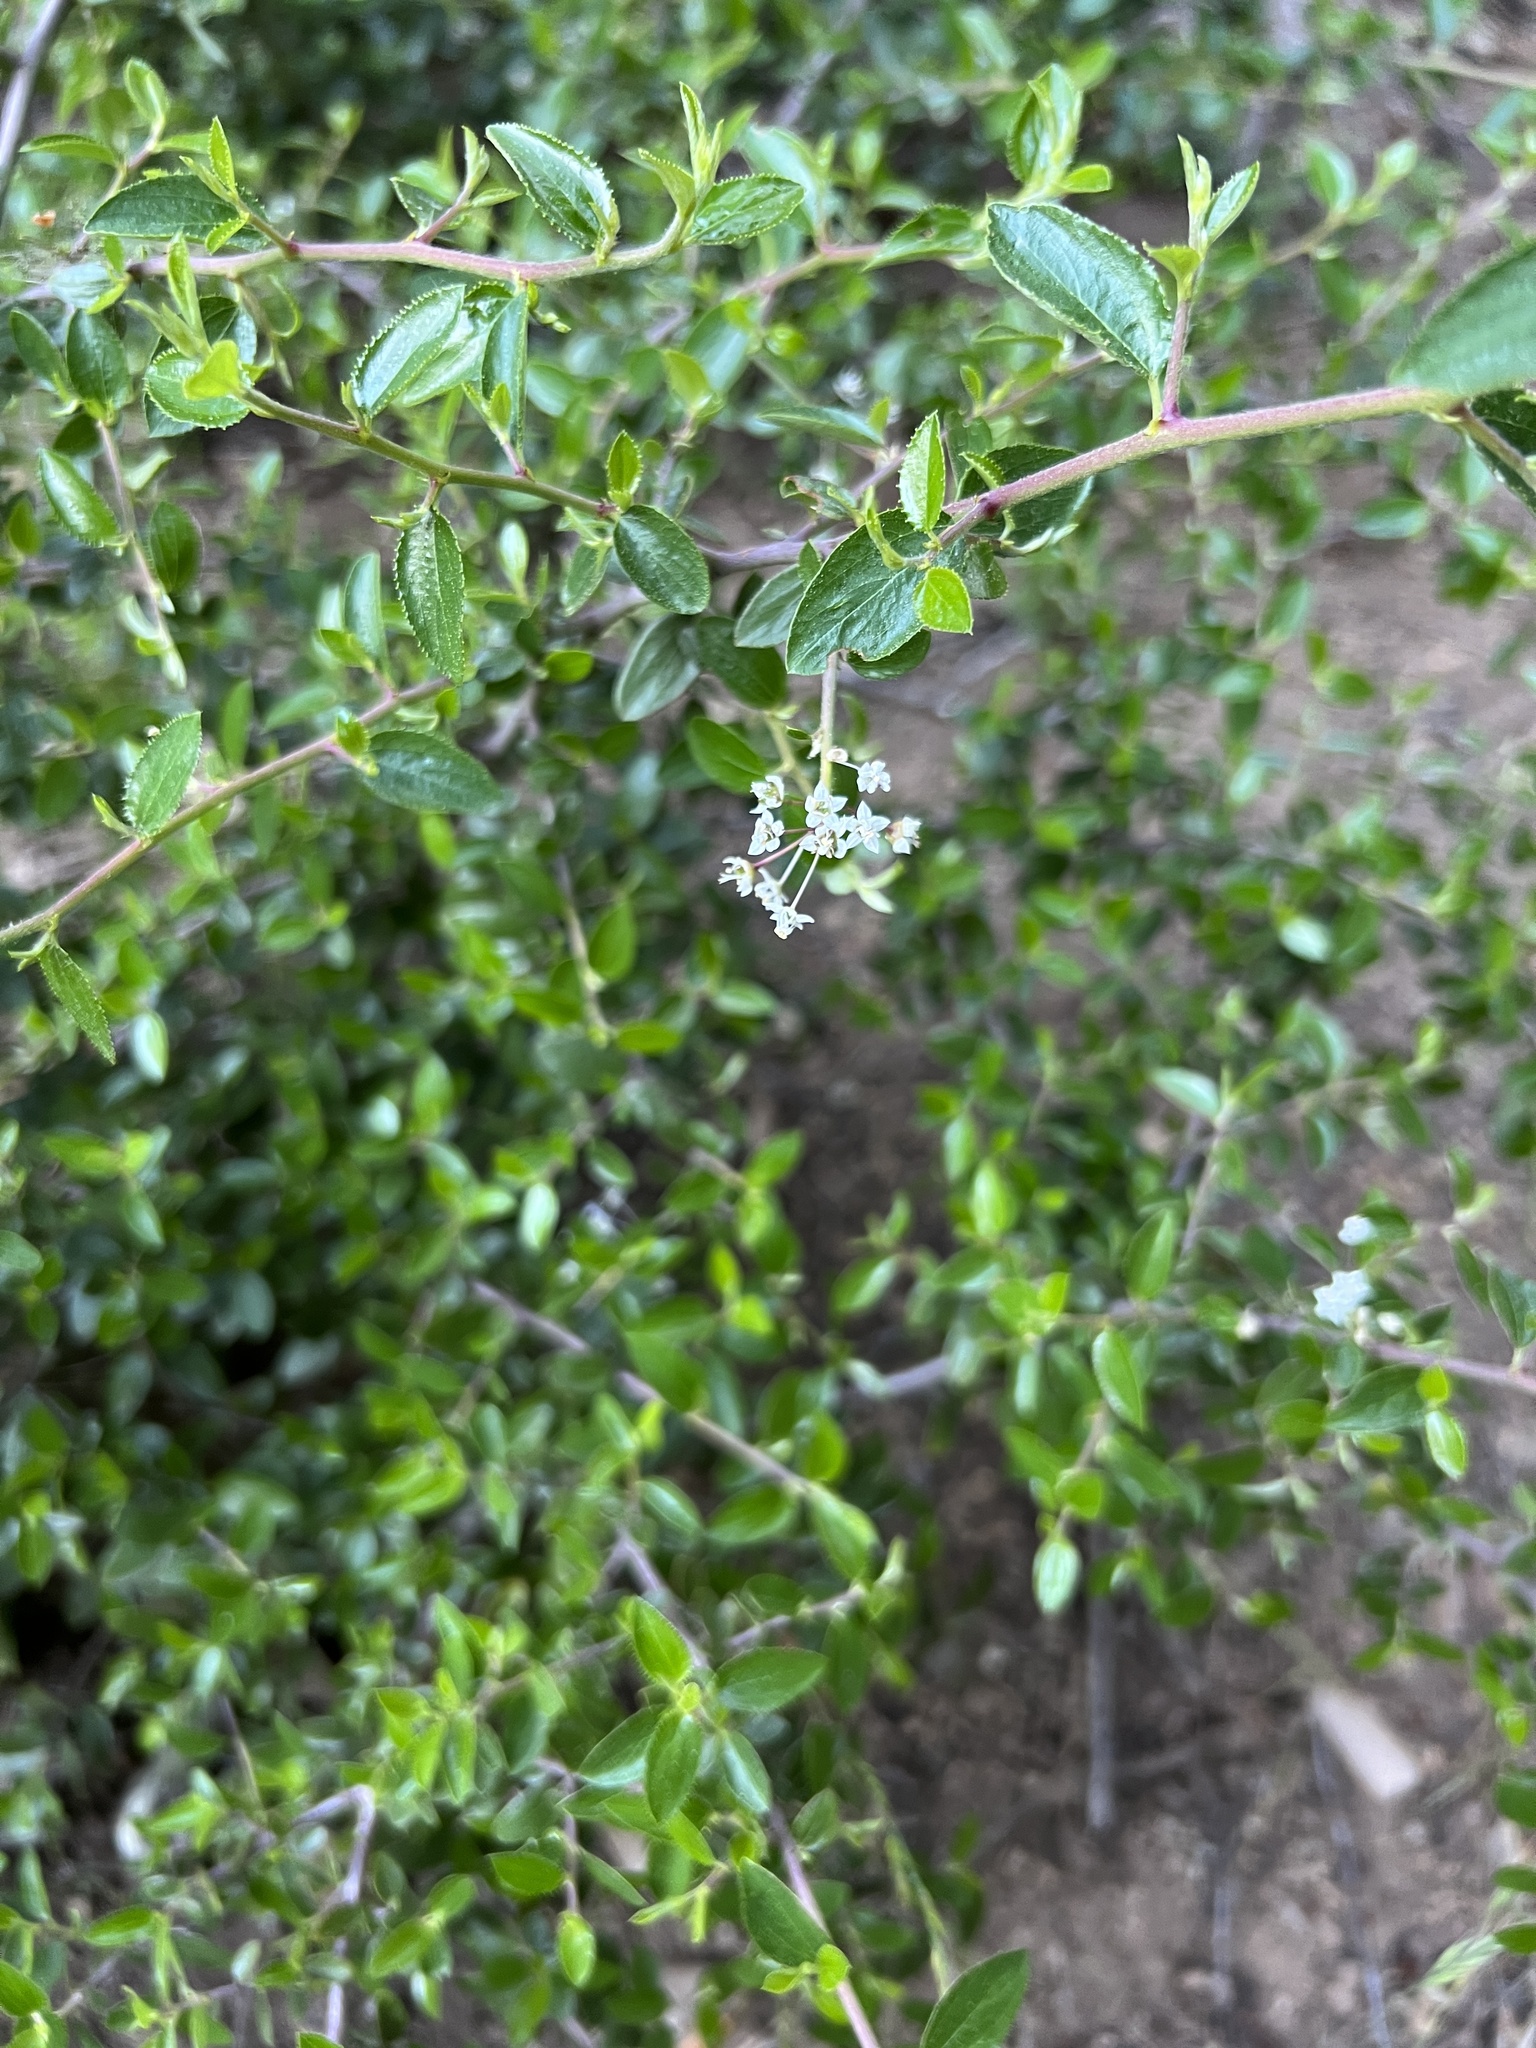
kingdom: Plantae
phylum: Tracheophyta
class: Magnoliopsida
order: Rosales
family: Rhamnaceae
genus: Ceanothus
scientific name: Ceanothus oliganthus
